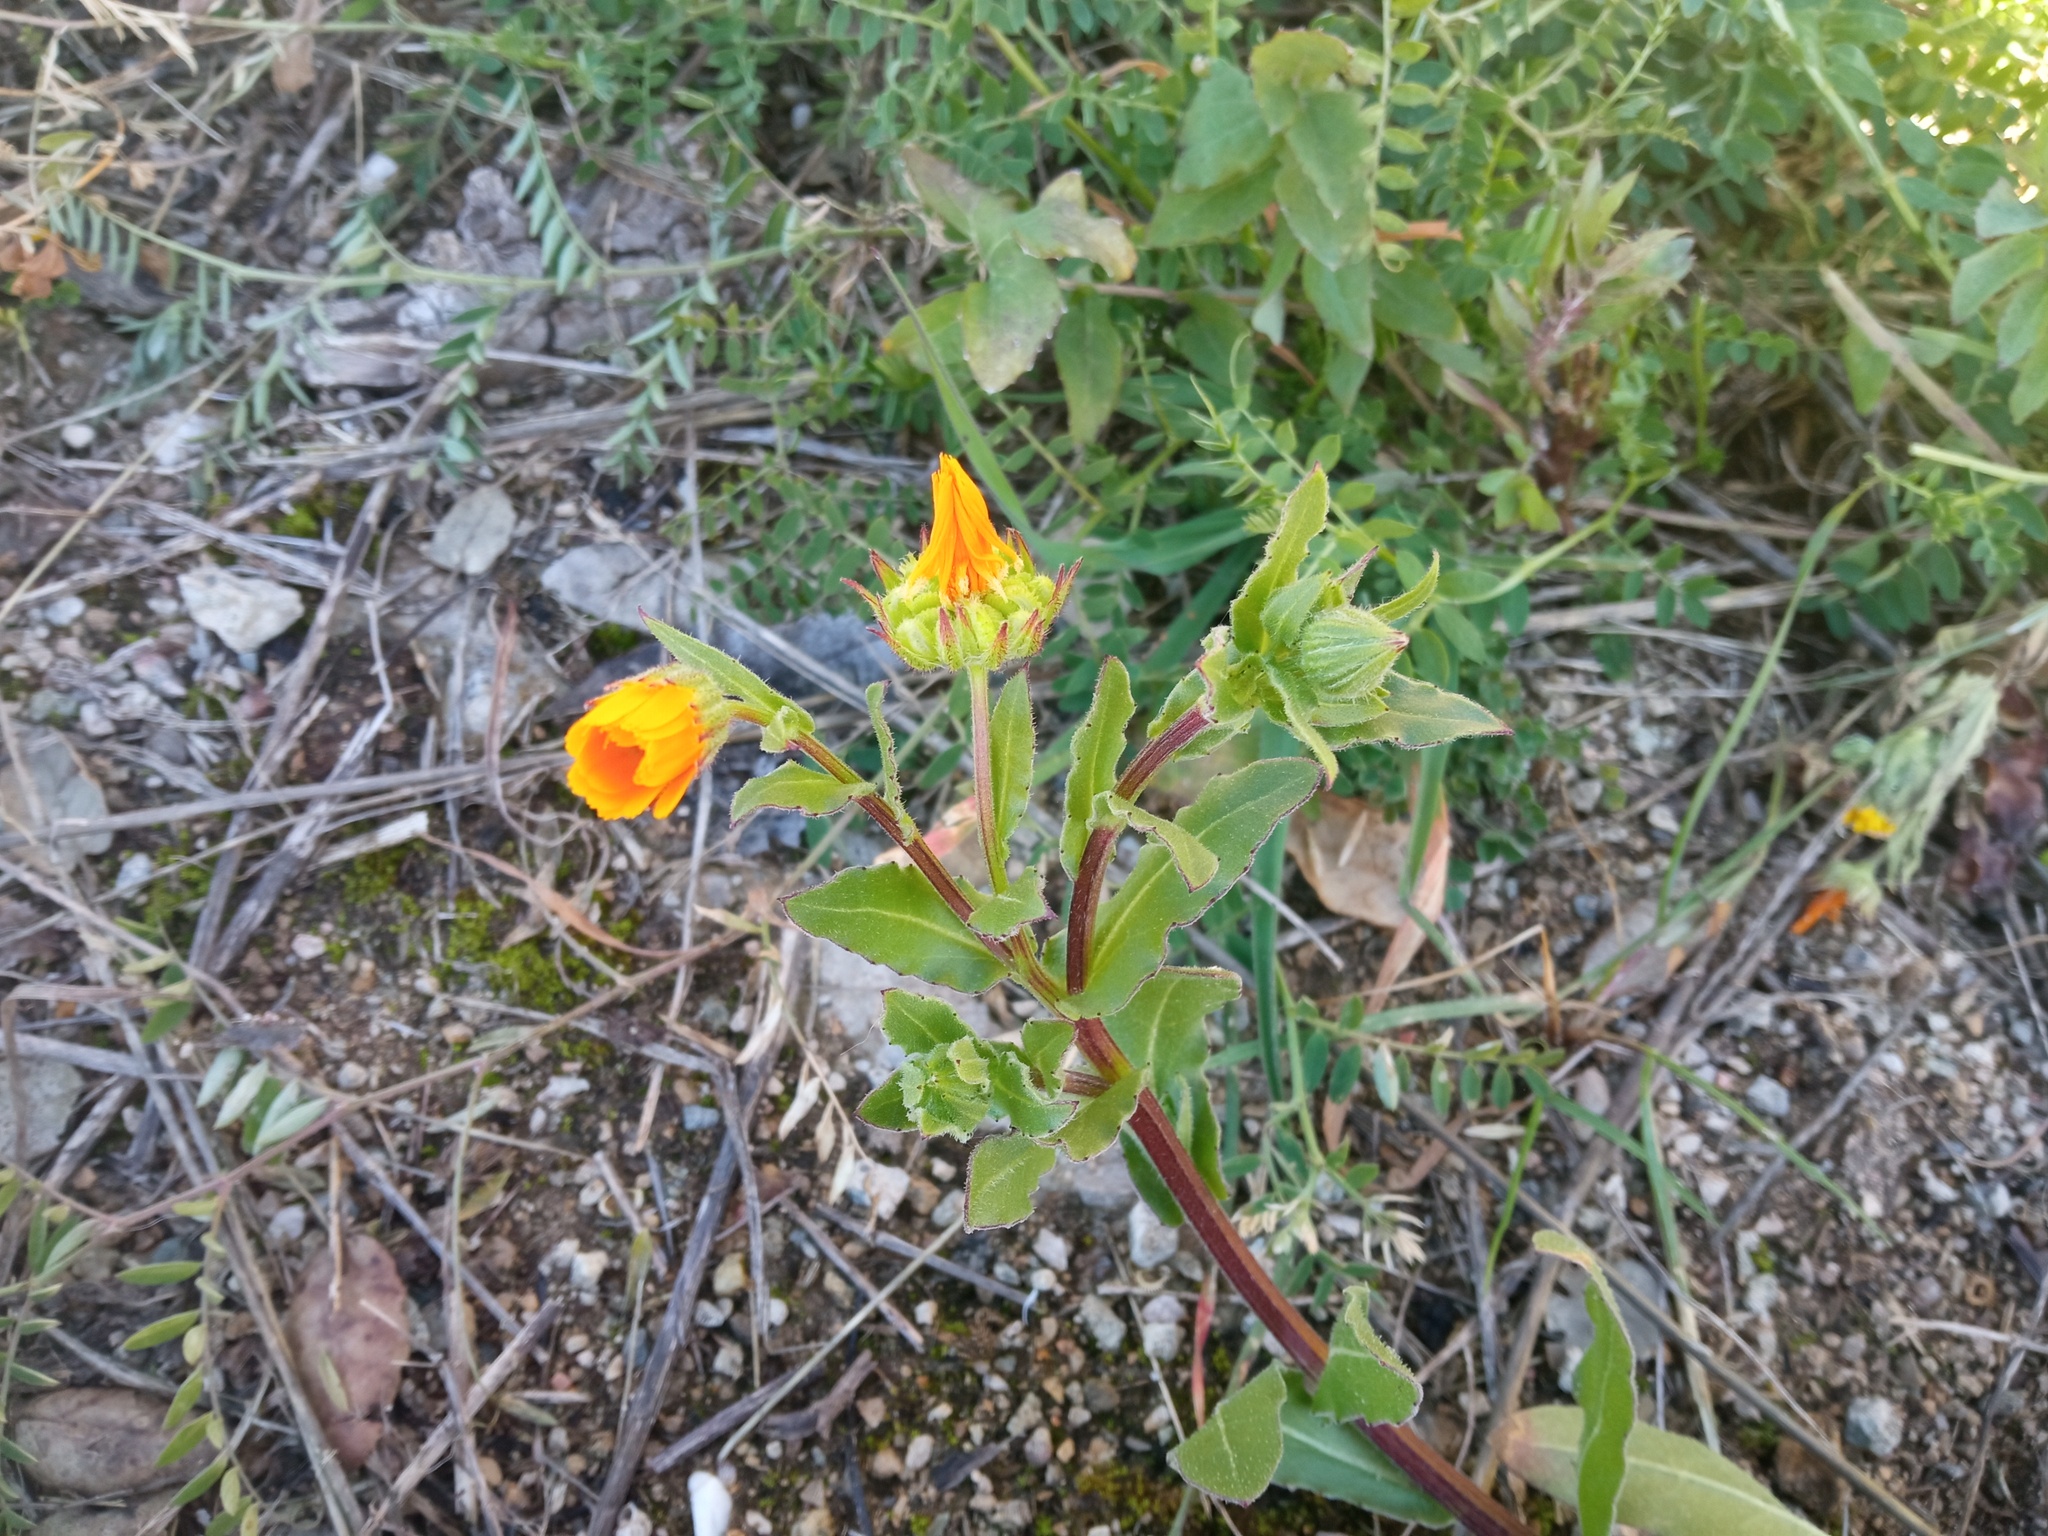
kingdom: Plantae
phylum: Tracheophyta
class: Magnoliopsida
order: Asterales
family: Asteraceae
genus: Calendula
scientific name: Calendula arvensis
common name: Field marigold
